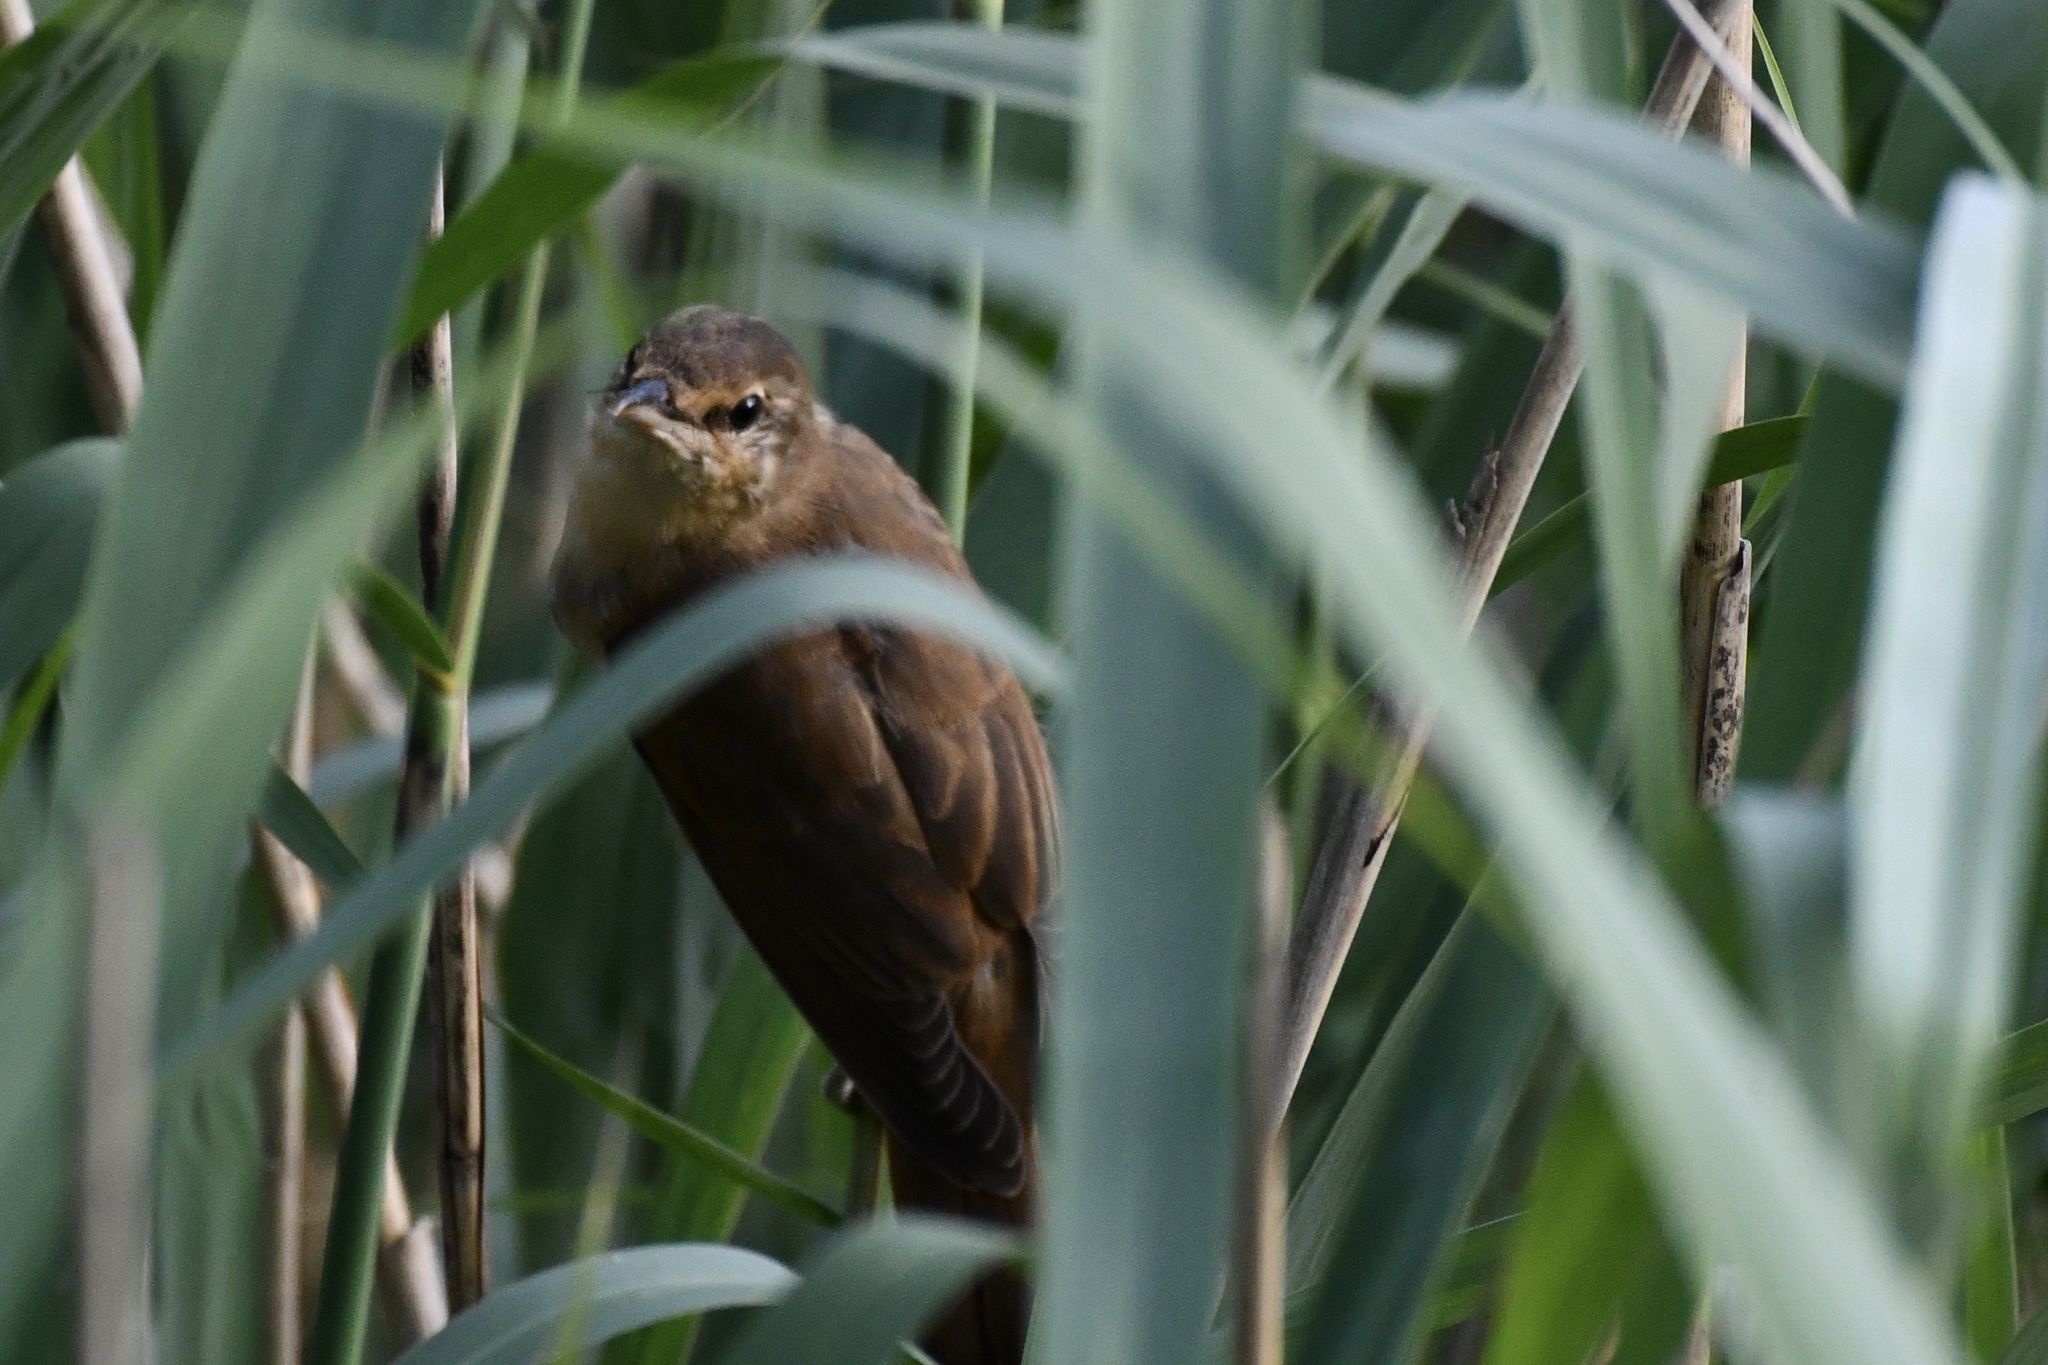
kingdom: Animalia
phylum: Chordata
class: Aves
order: Passeriformes
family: Acrocephalidae
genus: Acrocephalus
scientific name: Acrocephalus arundinaceus
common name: Great reed warbler
